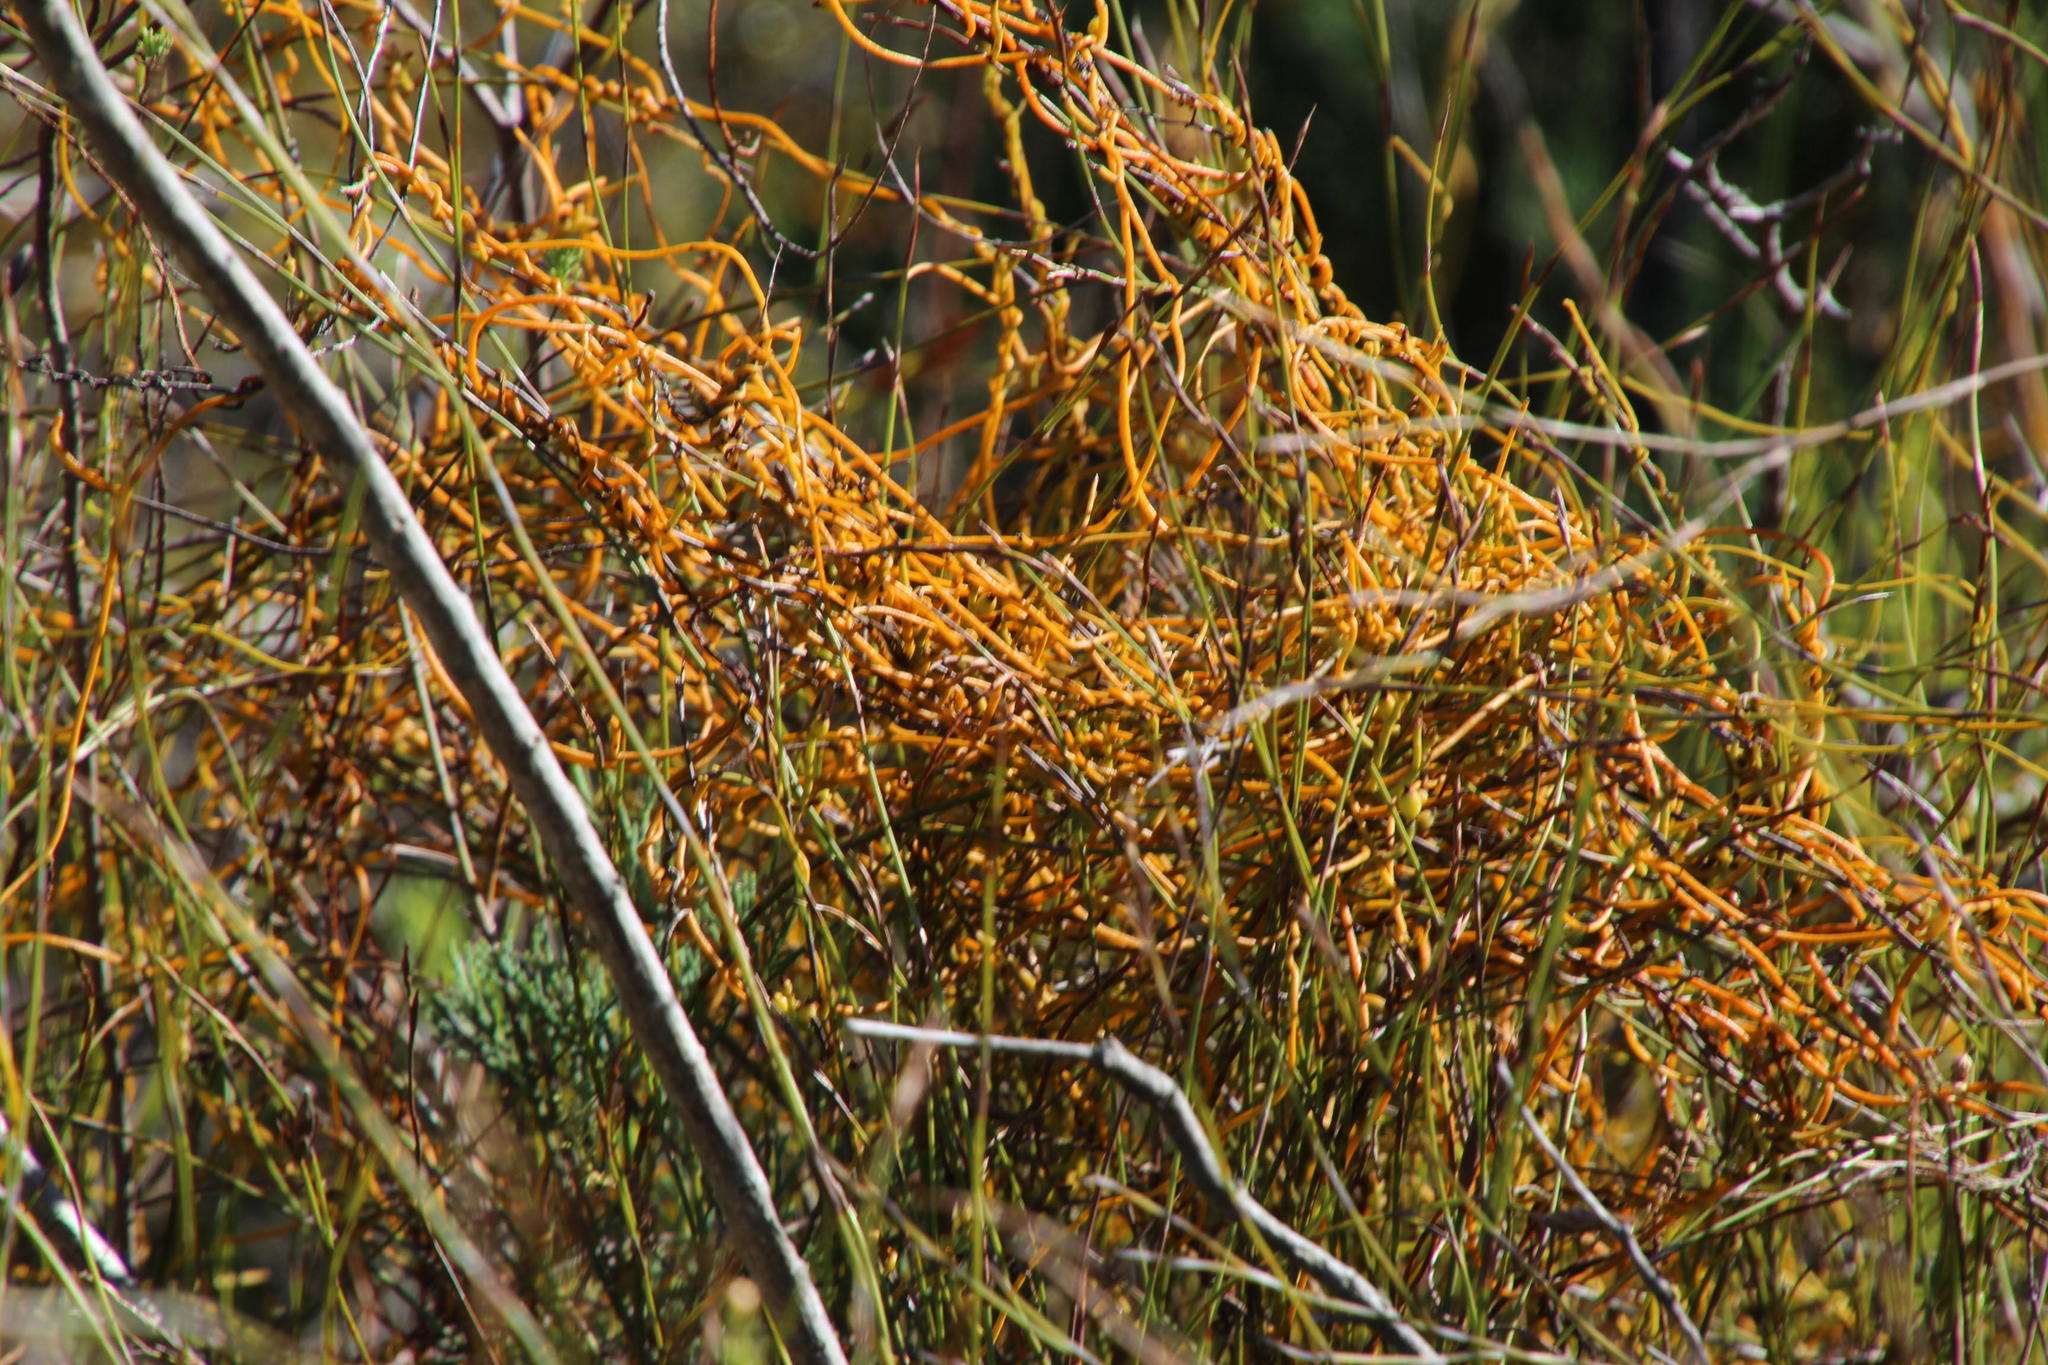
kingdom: Plantae
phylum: Tracheophyta
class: Magnoliopsida
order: Laurales
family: Lauraceae
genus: Cassytha
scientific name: Cassytha ciliolata
